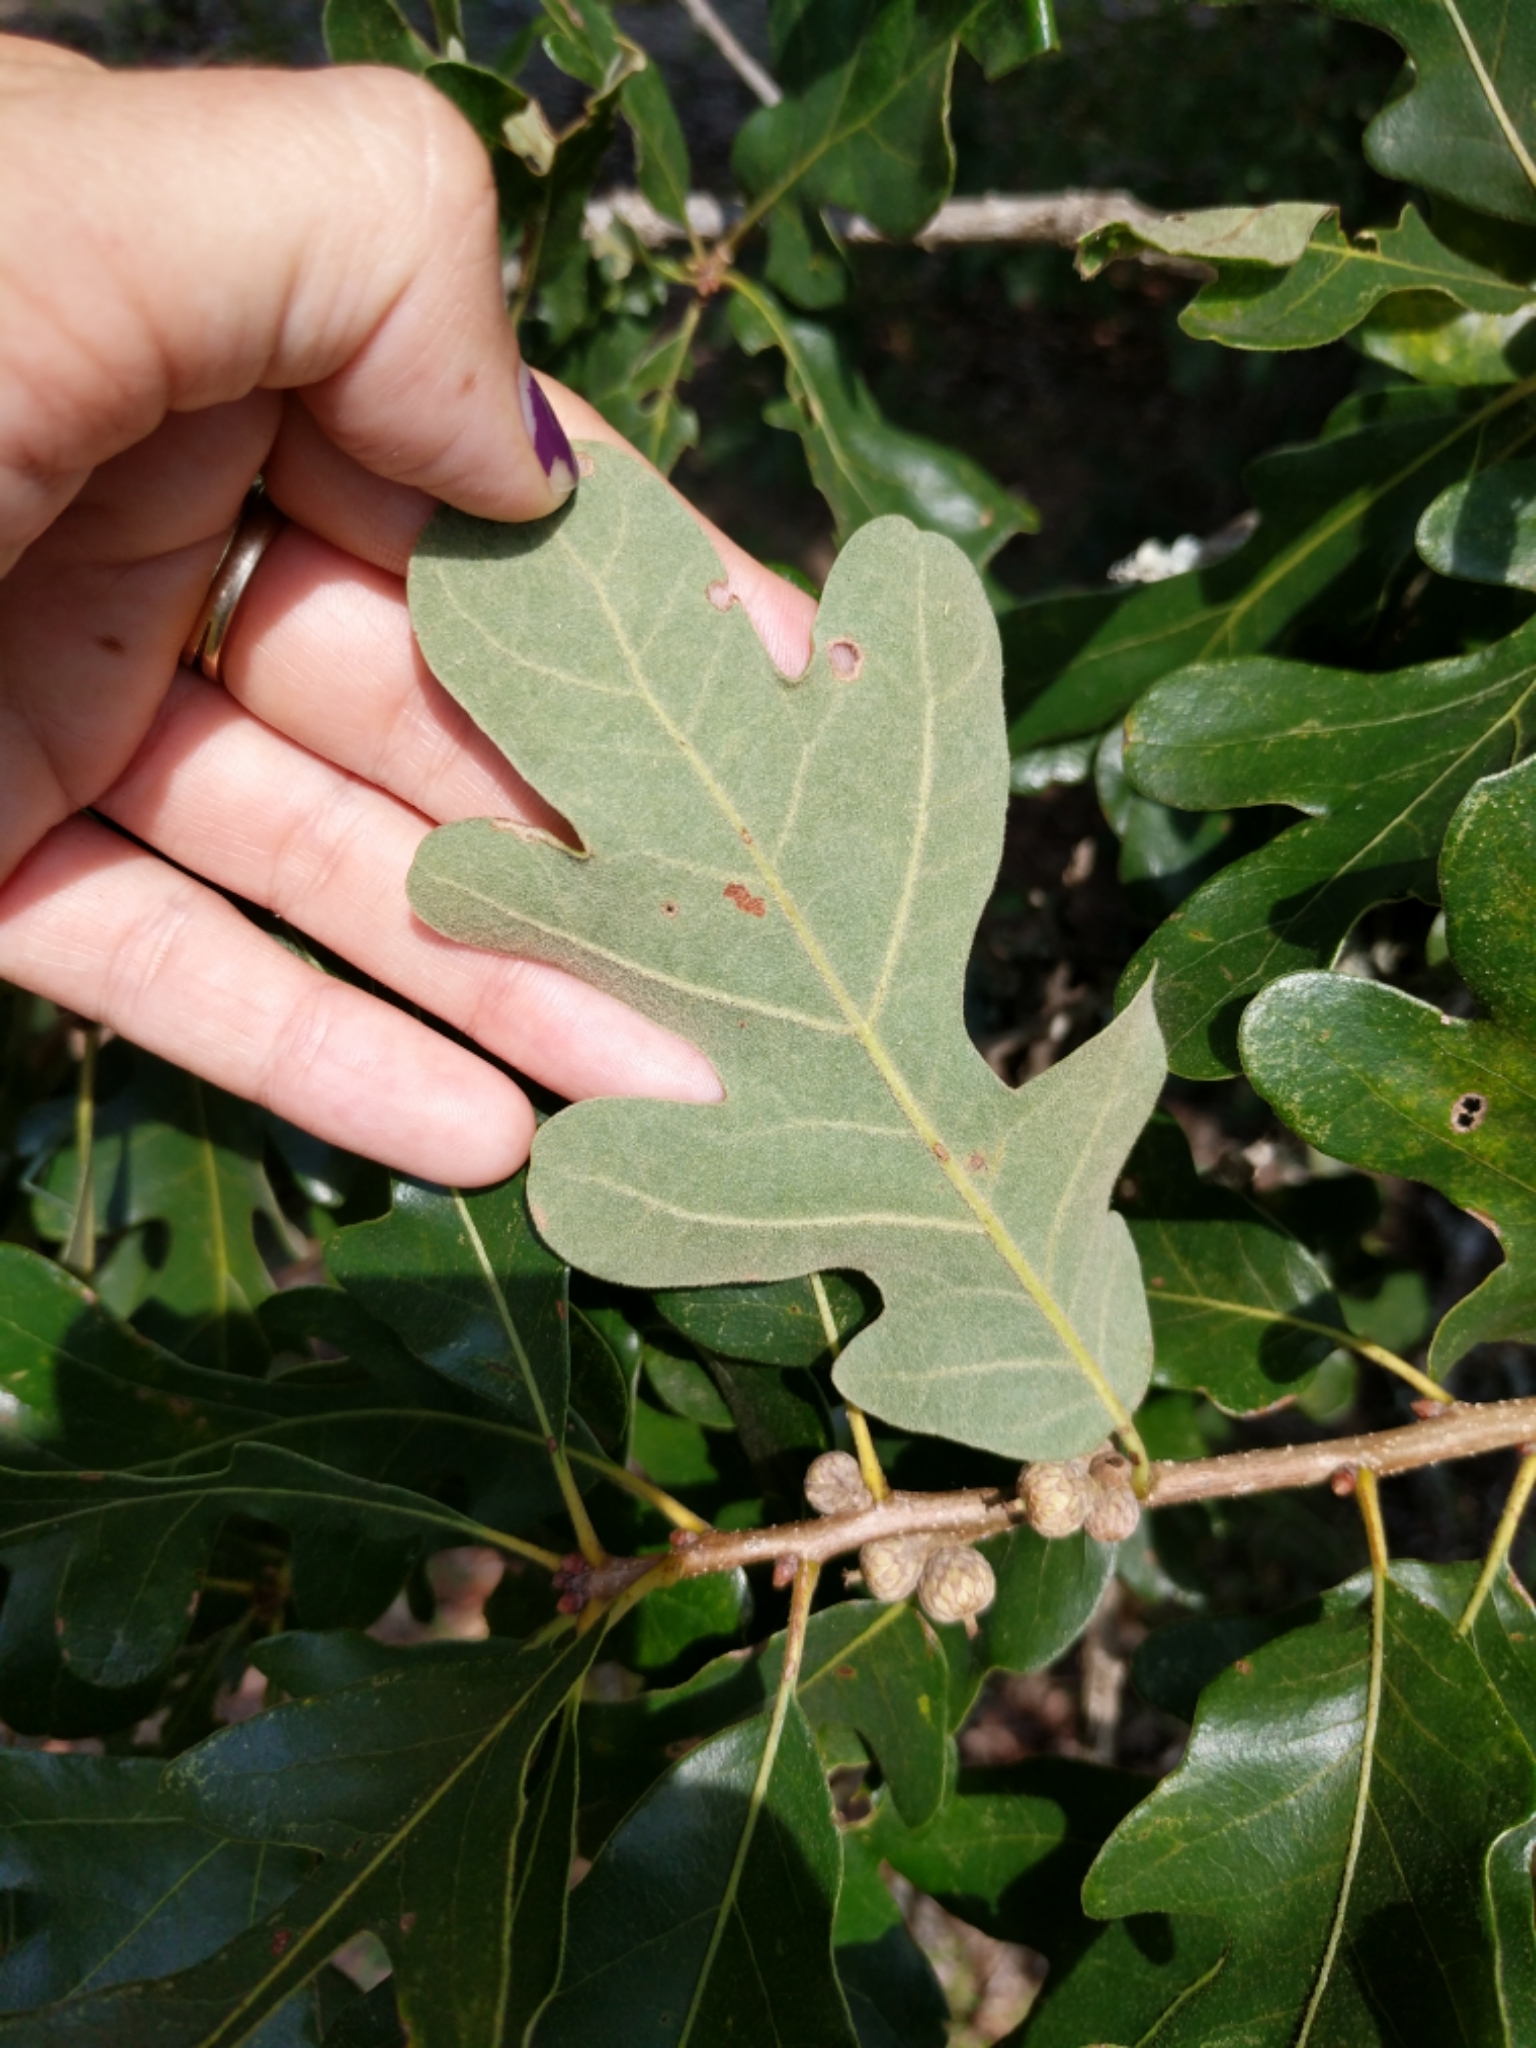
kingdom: Plantae
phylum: Tracheophyta
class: Magnoliopsida
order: Fagales
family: Fagaceae
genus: Quercus
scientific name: Quercus margaretiae
